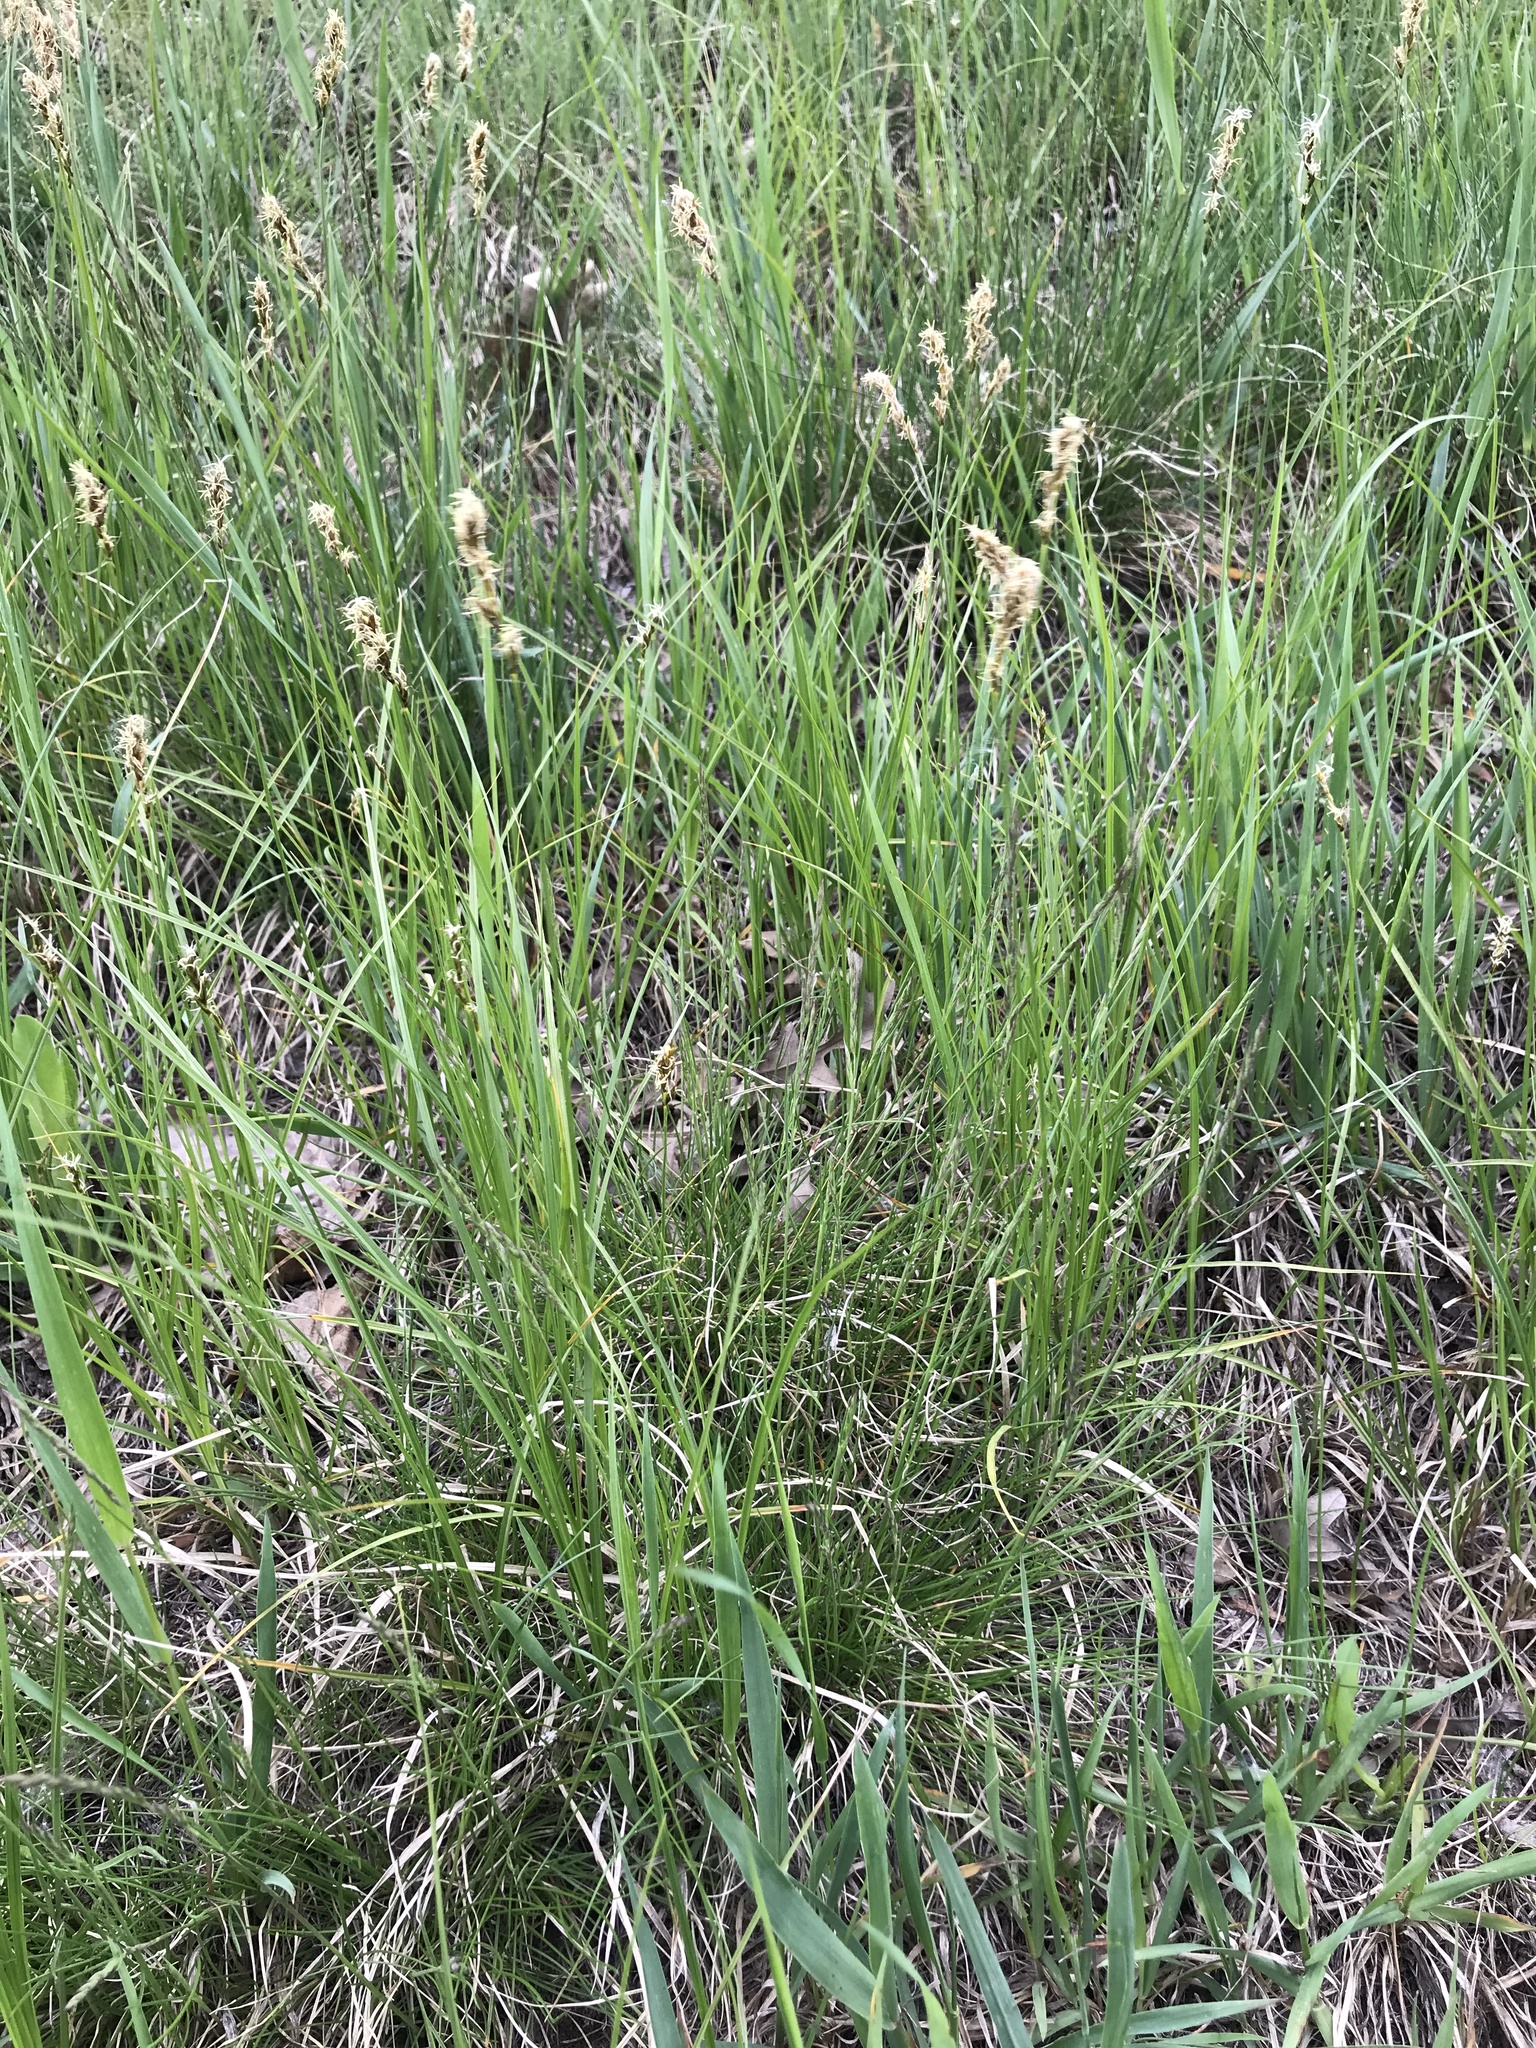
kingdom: Plantae
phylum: Tracheophyta
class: Liliopsida
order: Poales
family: Cyperaceae
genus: Carex
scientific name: Carex siccata
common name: Dry sedge
